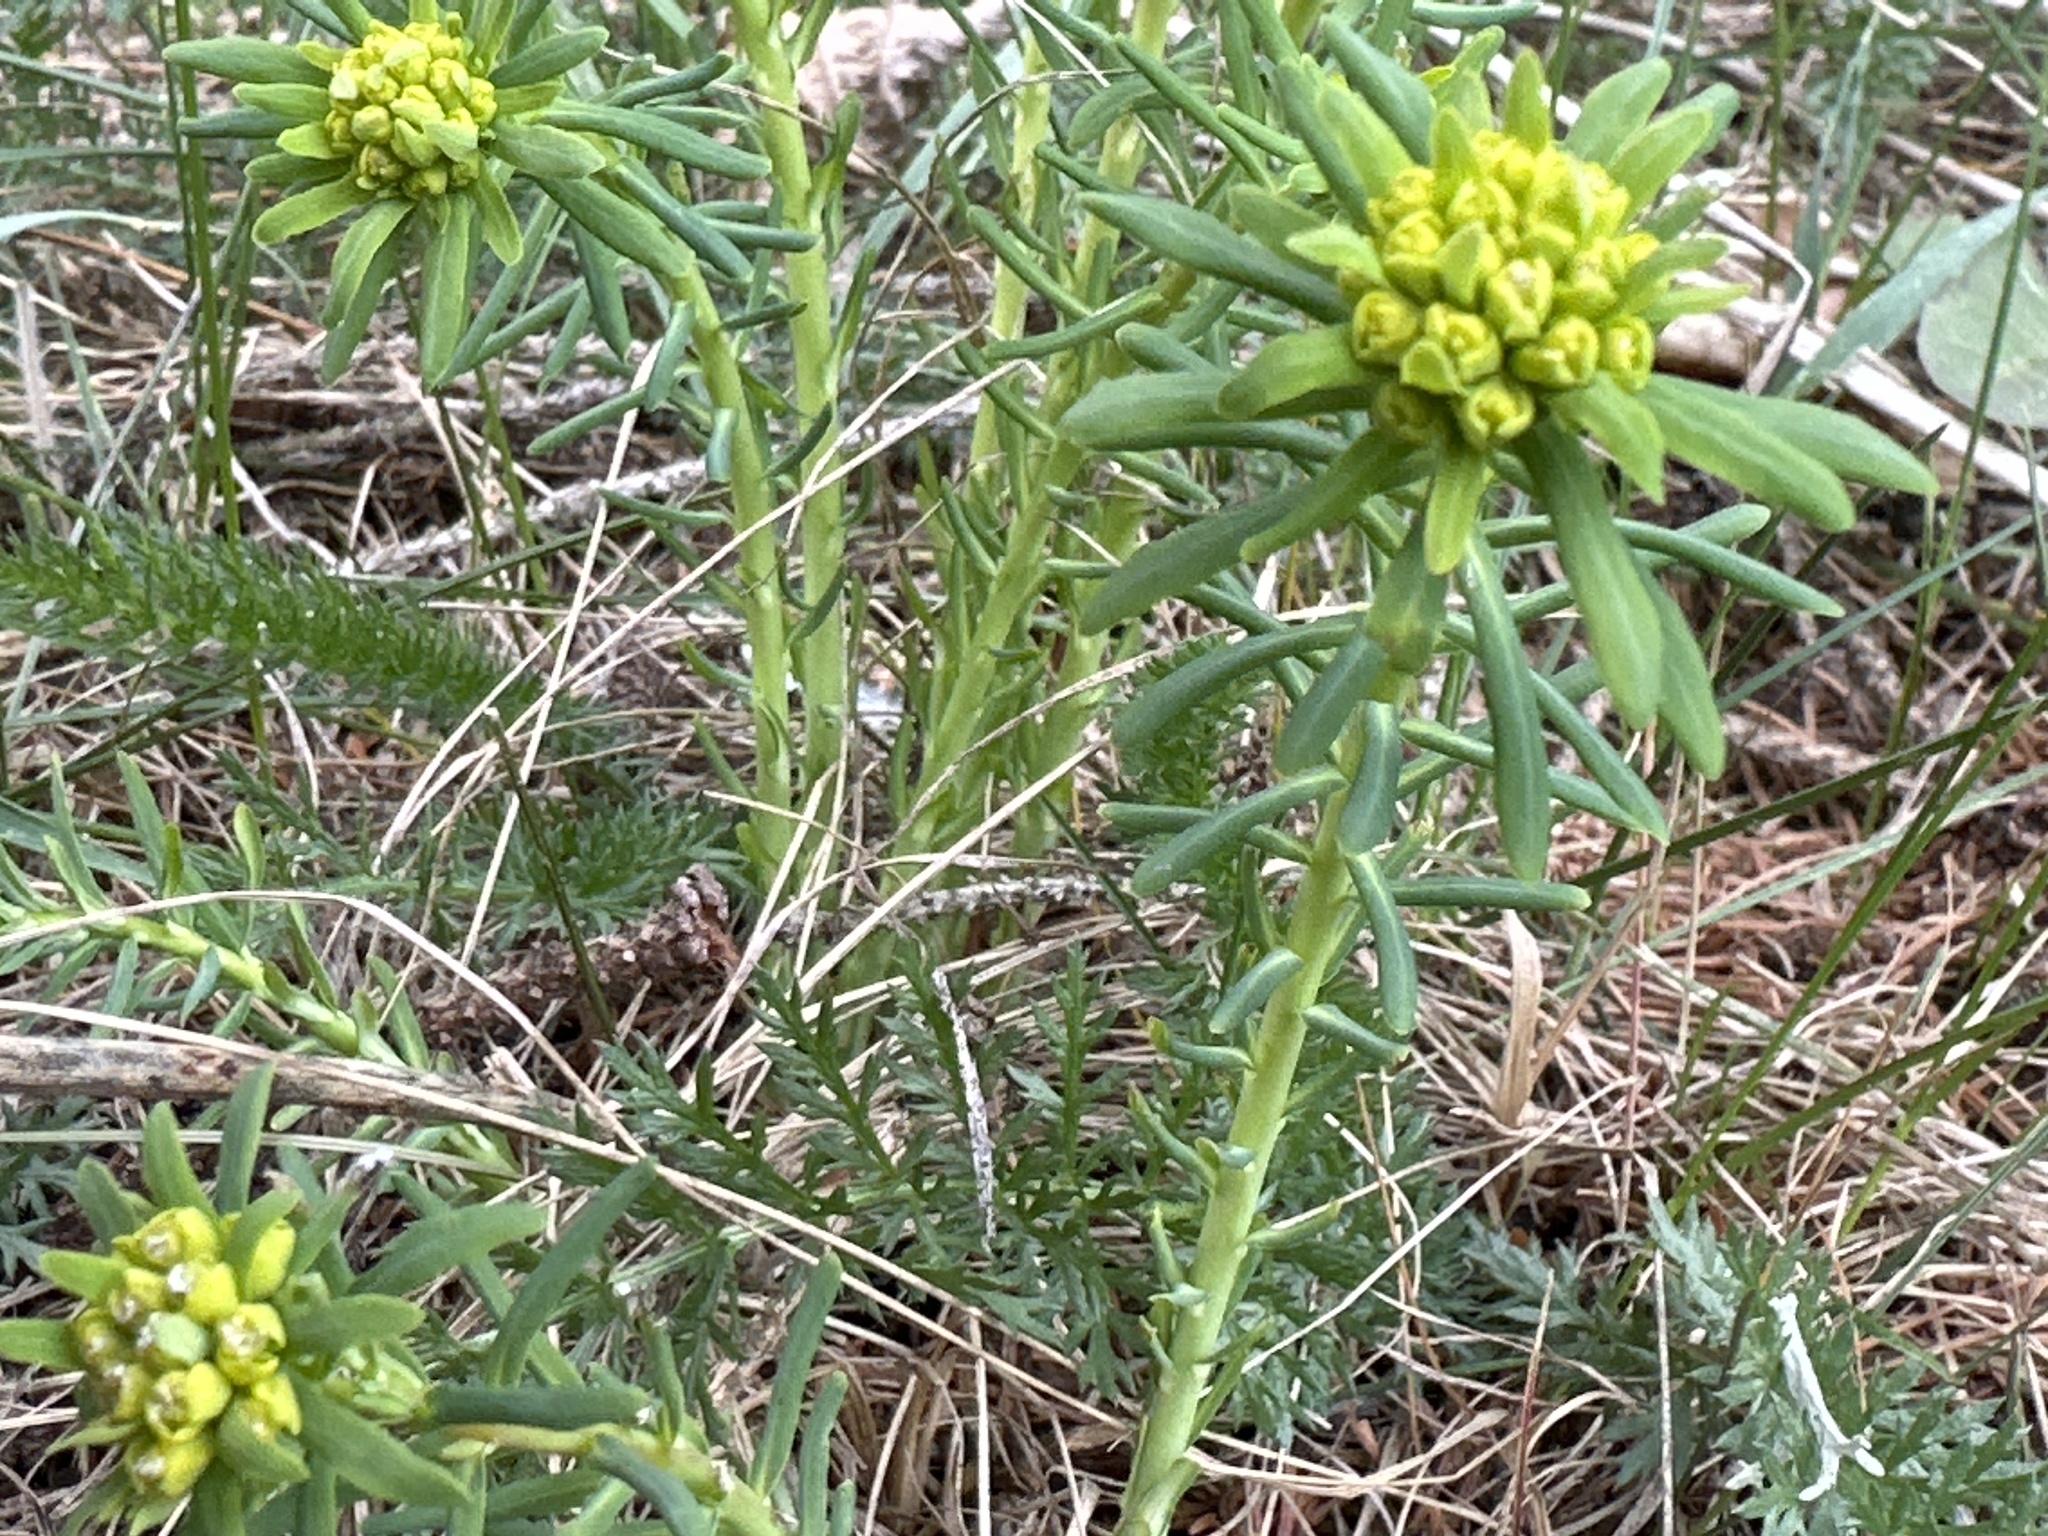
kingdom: Plantae
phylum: Tracheophyta
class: Magnoliopsida
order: Malpighiales
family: Euphorbiaceae
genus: Euphorbia
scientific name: Euphorbia cyparissias
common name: Cypress spurge
